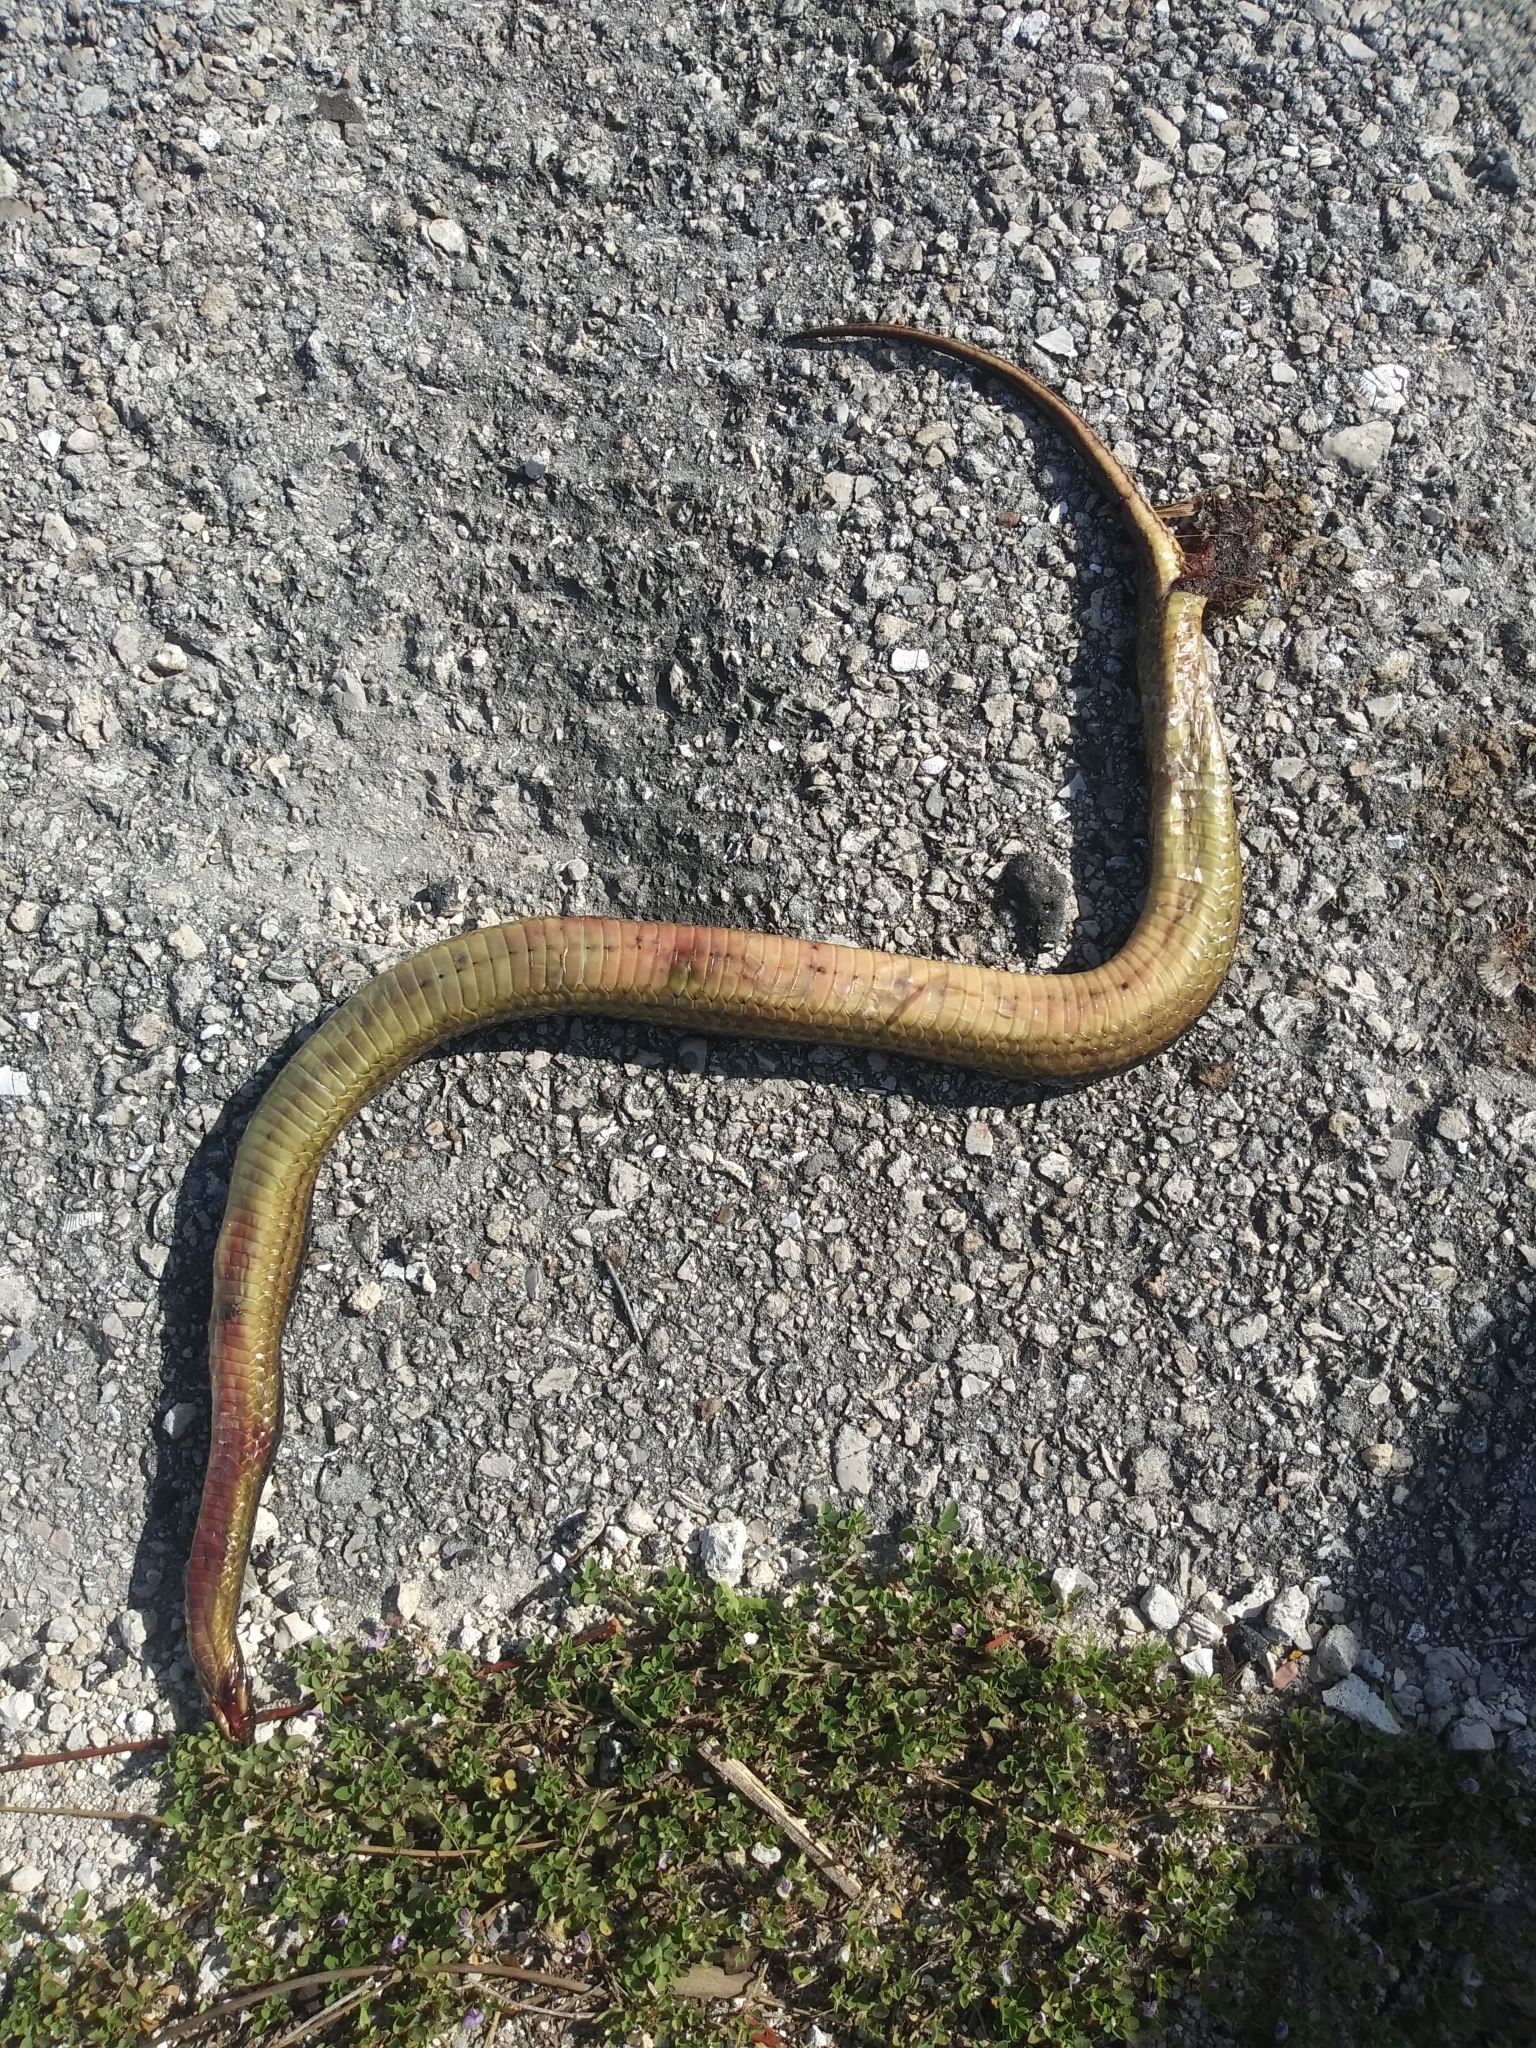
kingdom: Animalia
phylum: Chordata
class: Squamata
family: Colubridae
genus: Liodytes
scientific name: Liodytes alleni
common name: Striped crayfish snake
